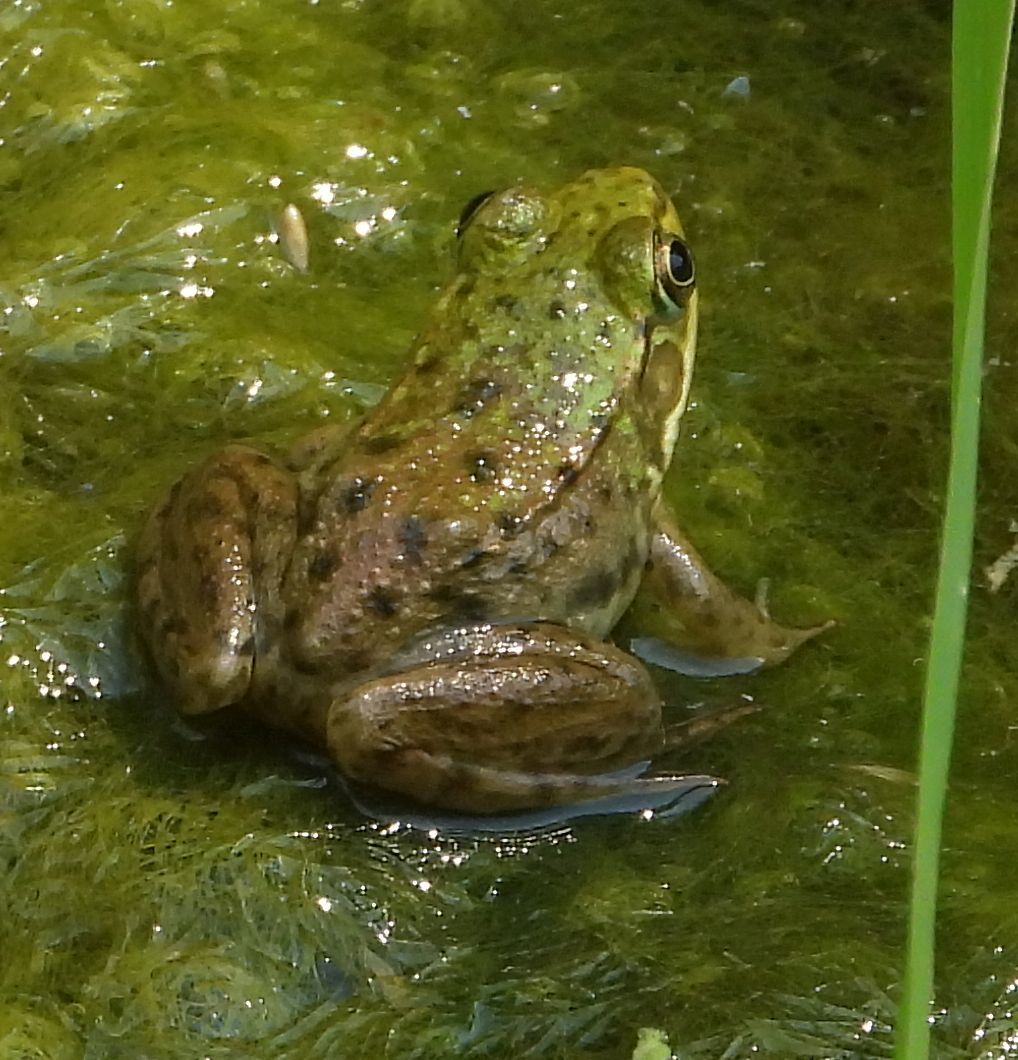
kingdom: Animalia
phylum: Chordata
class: Amphibia
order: Anura
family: Ranidae
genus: Lithobates
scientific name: Lithobates clamitans
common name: Green frog
